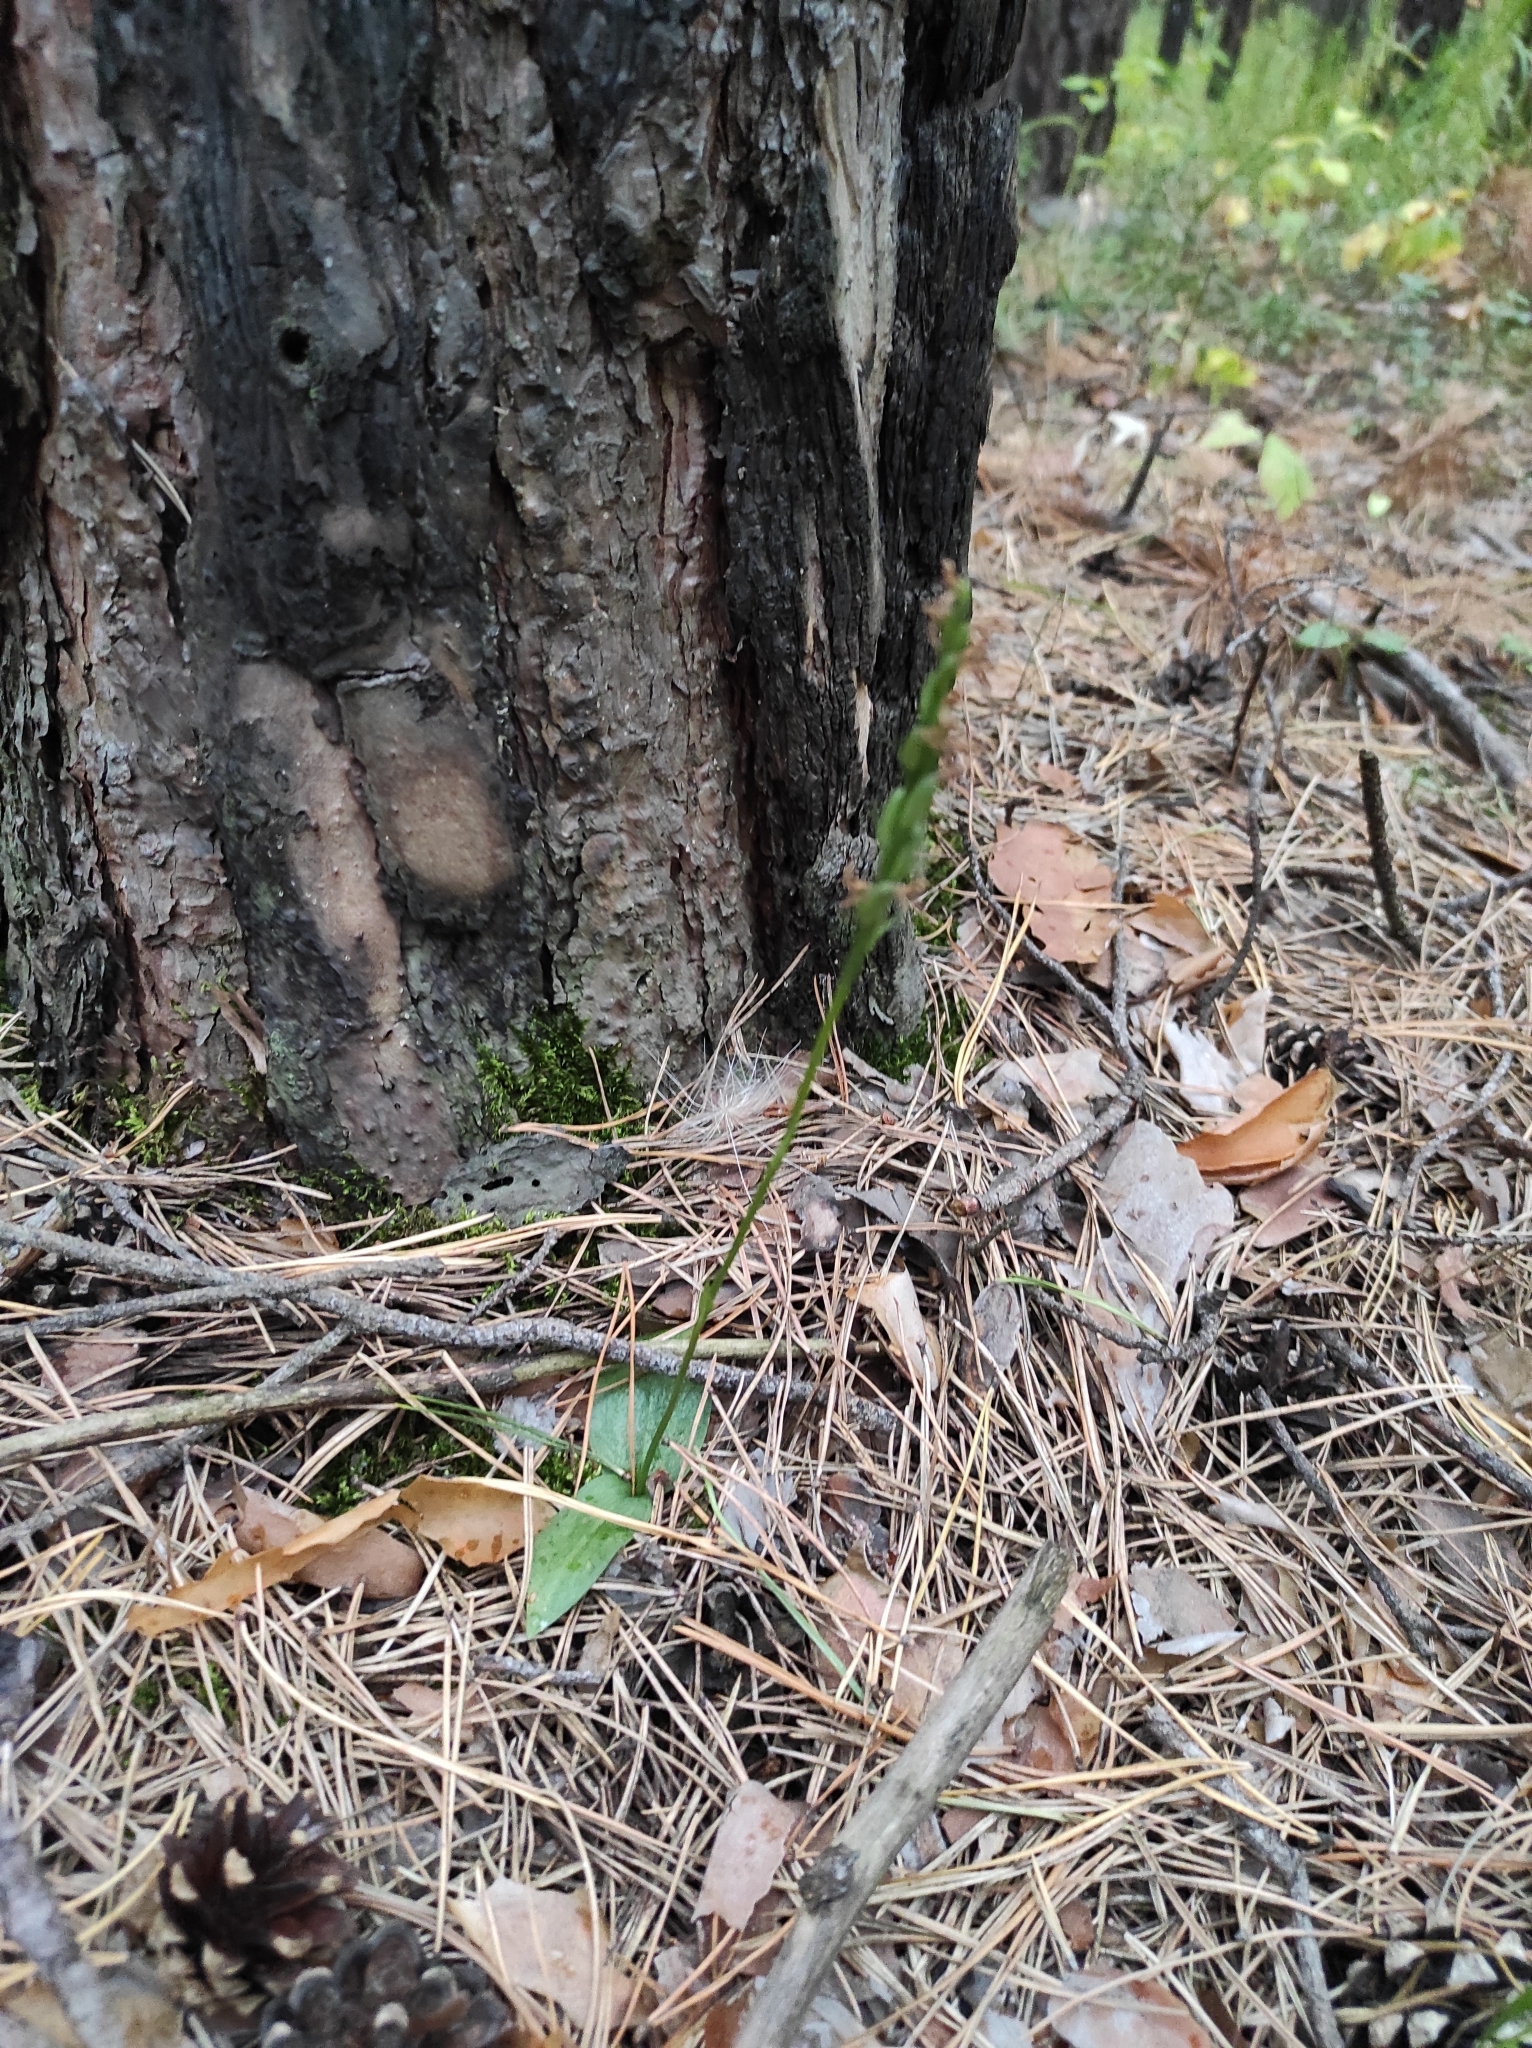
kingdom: Plantae
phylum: Tracheophyta
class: Liliopsida
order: Asparagales
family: Orchidaceae
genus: Hemipilia
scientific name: Hemipilia cucullata
